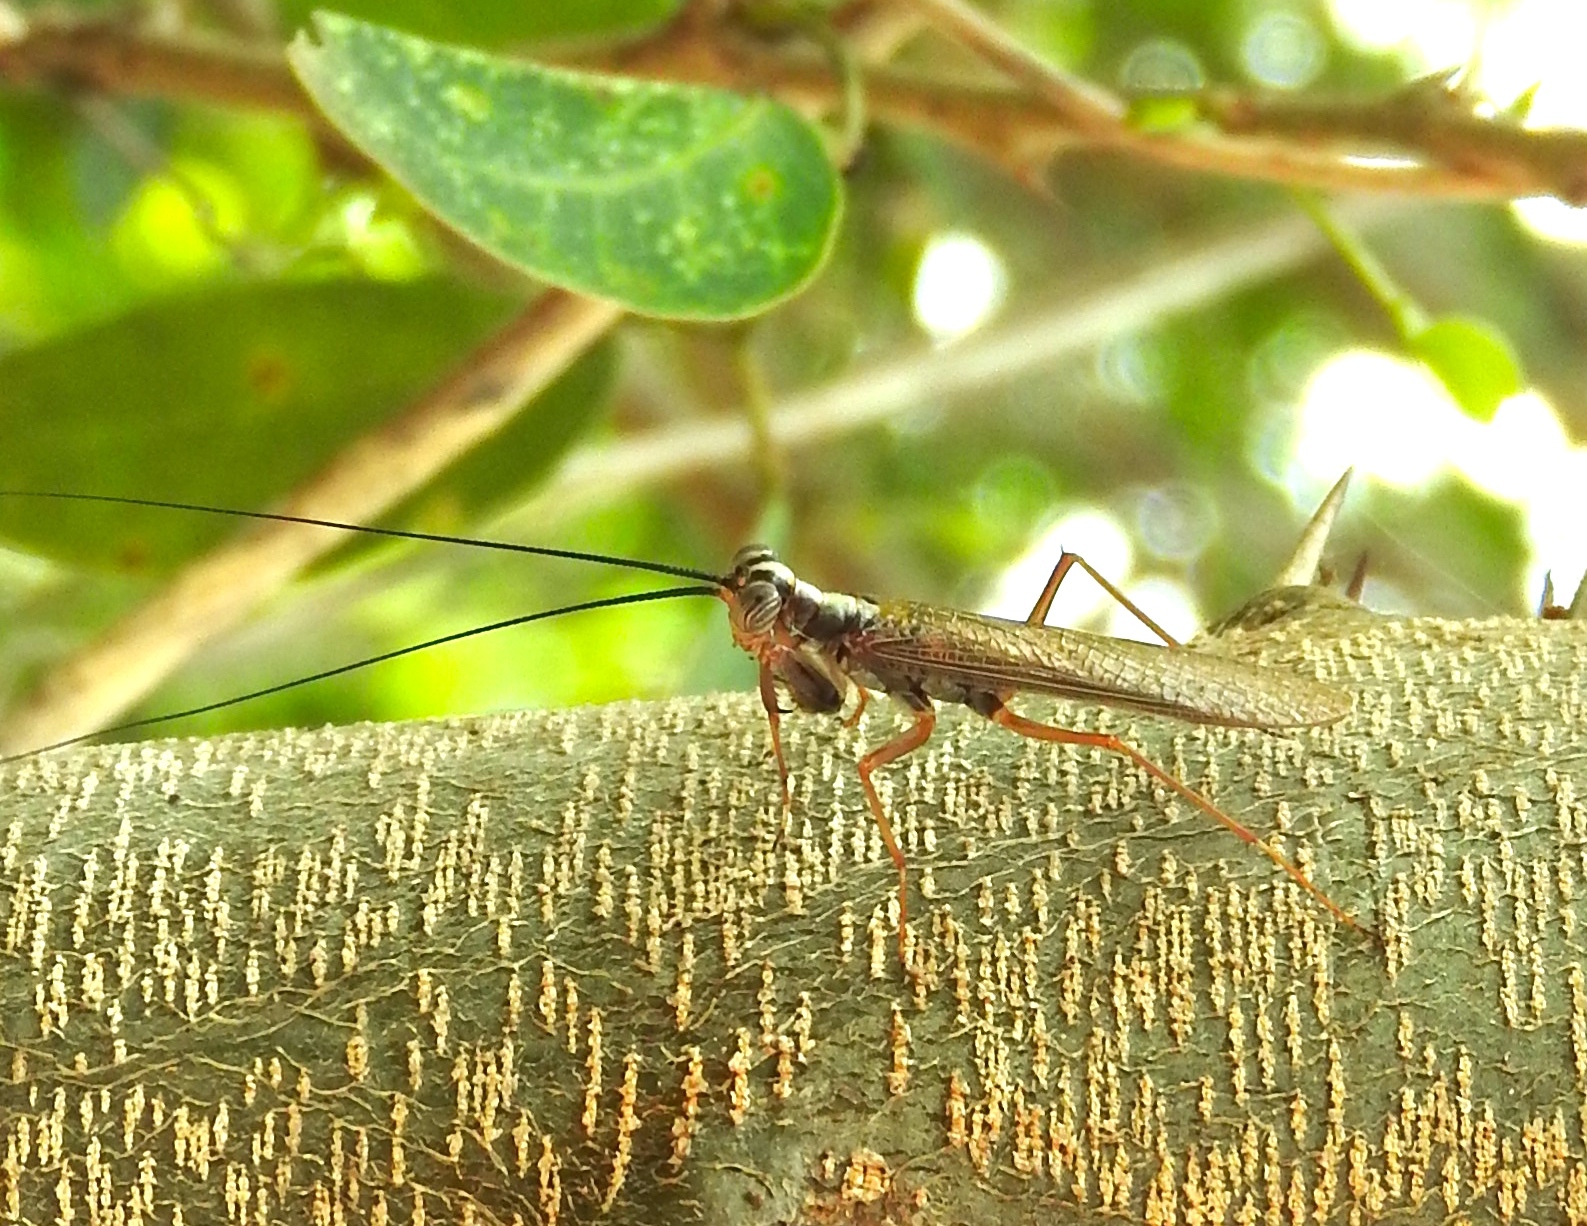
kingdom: Animalia
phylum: Arthropoda
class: Insecta
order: Mantodea
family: Mantoididae
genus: Mantoida
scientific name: Mantoida maya
